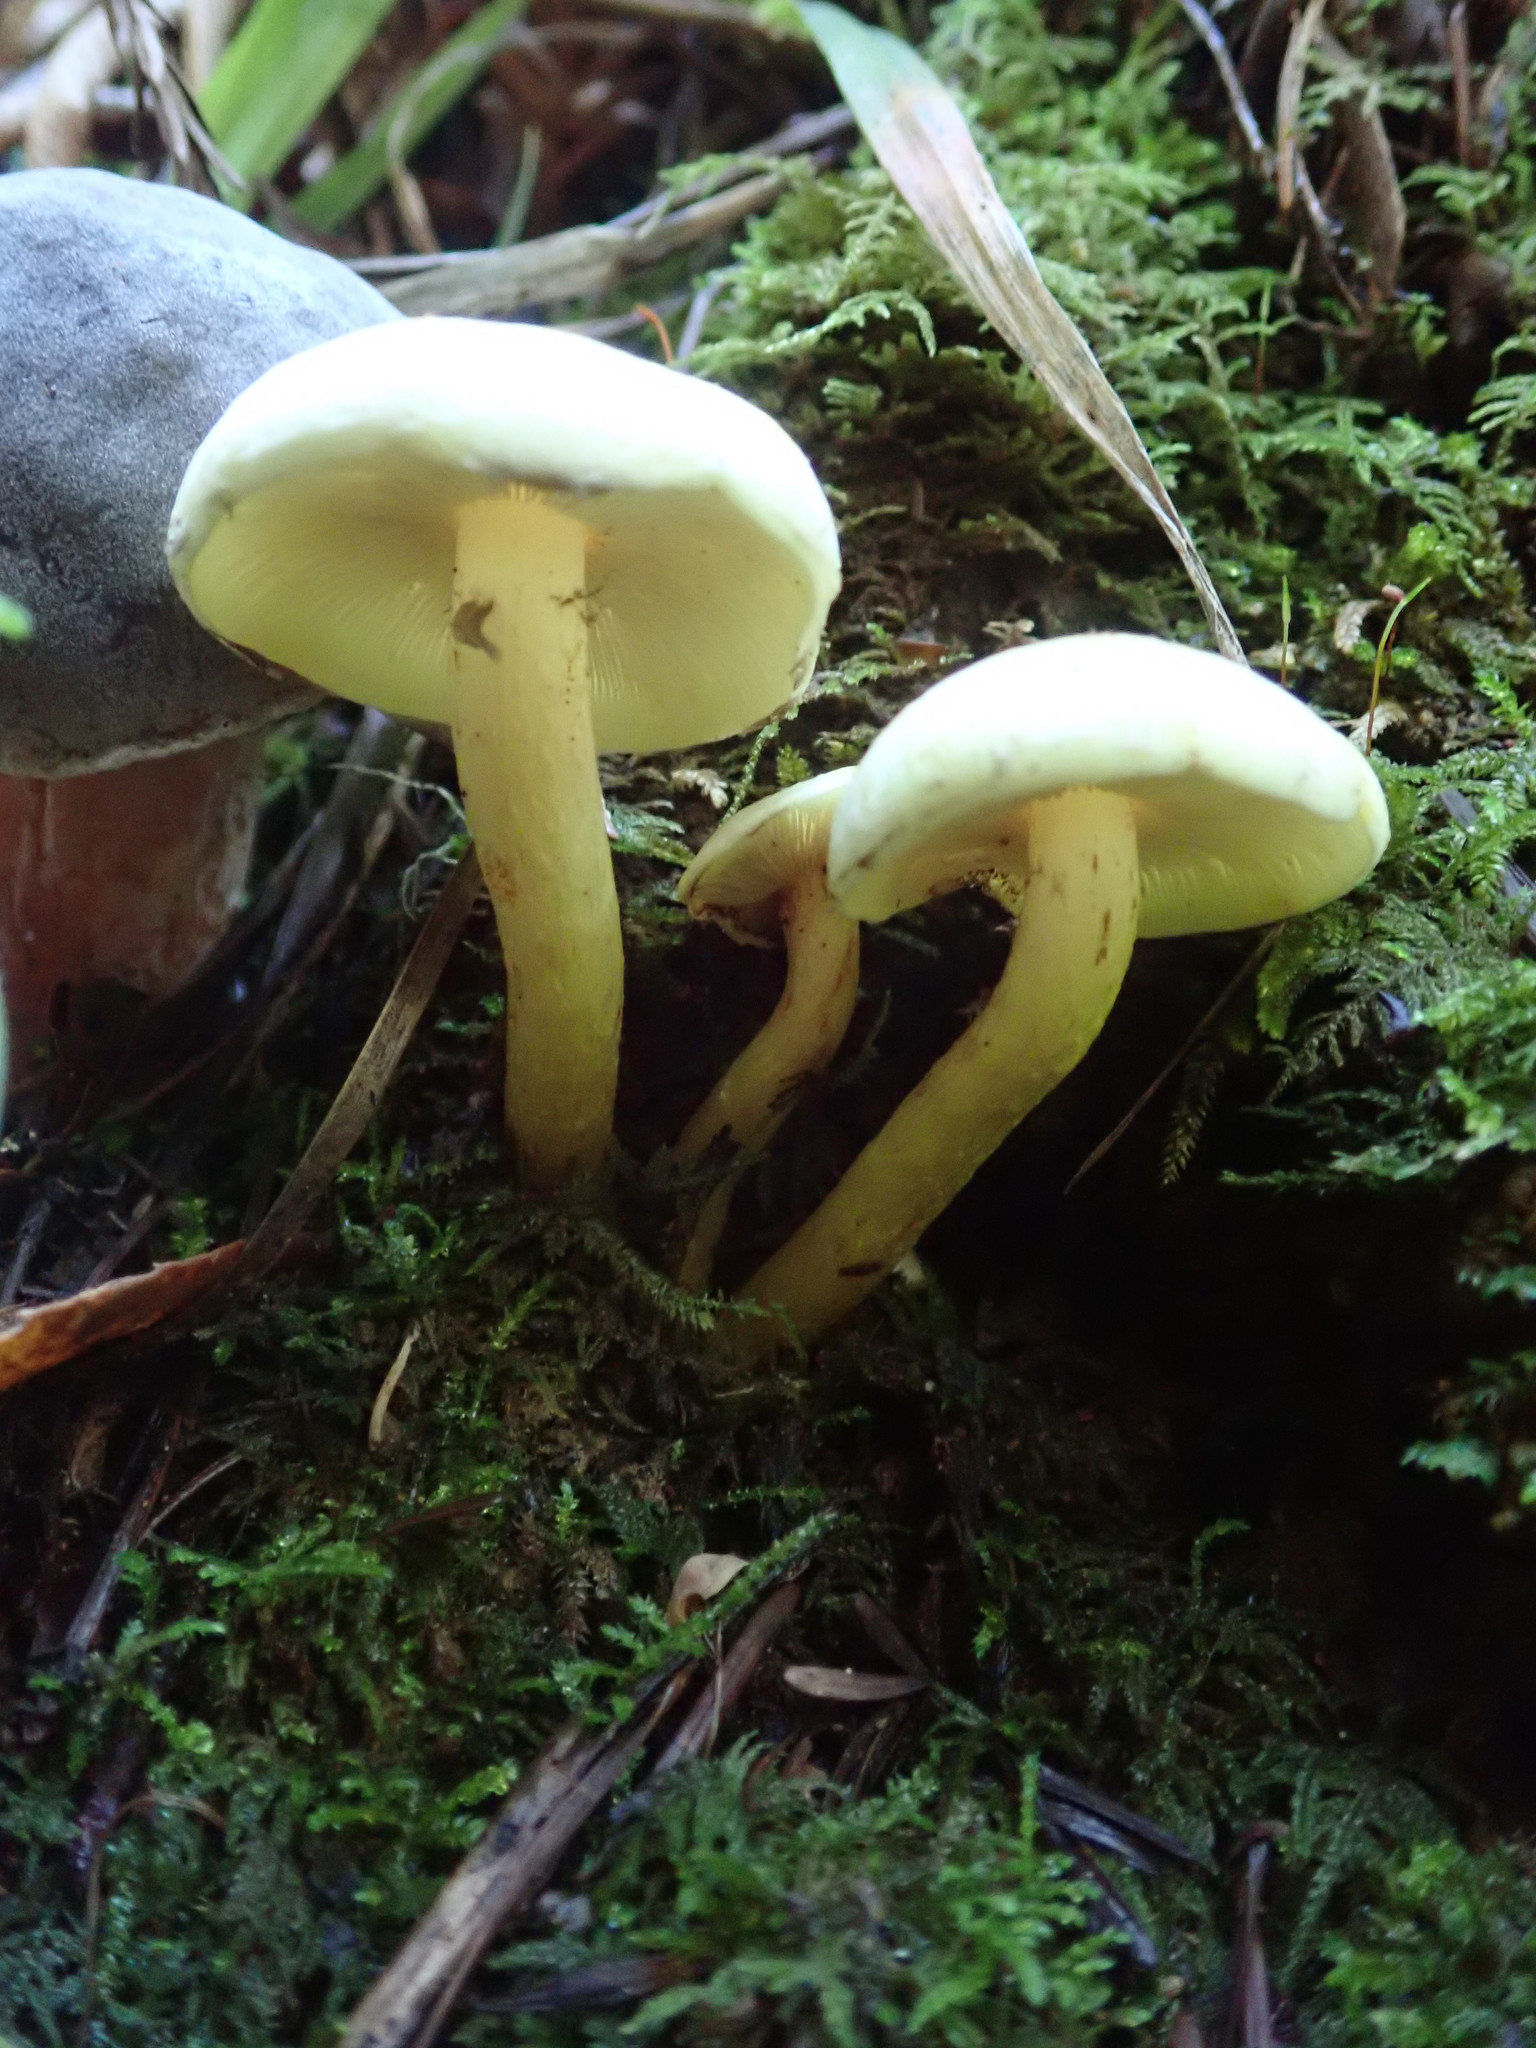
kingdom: Fungi
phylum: Basidiomycota
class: Agaricomycetes
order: Agaricales
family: Strophariaceae
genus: Hypholoma
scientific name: Hypholoma fasciculare
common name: Sulphur tuft
